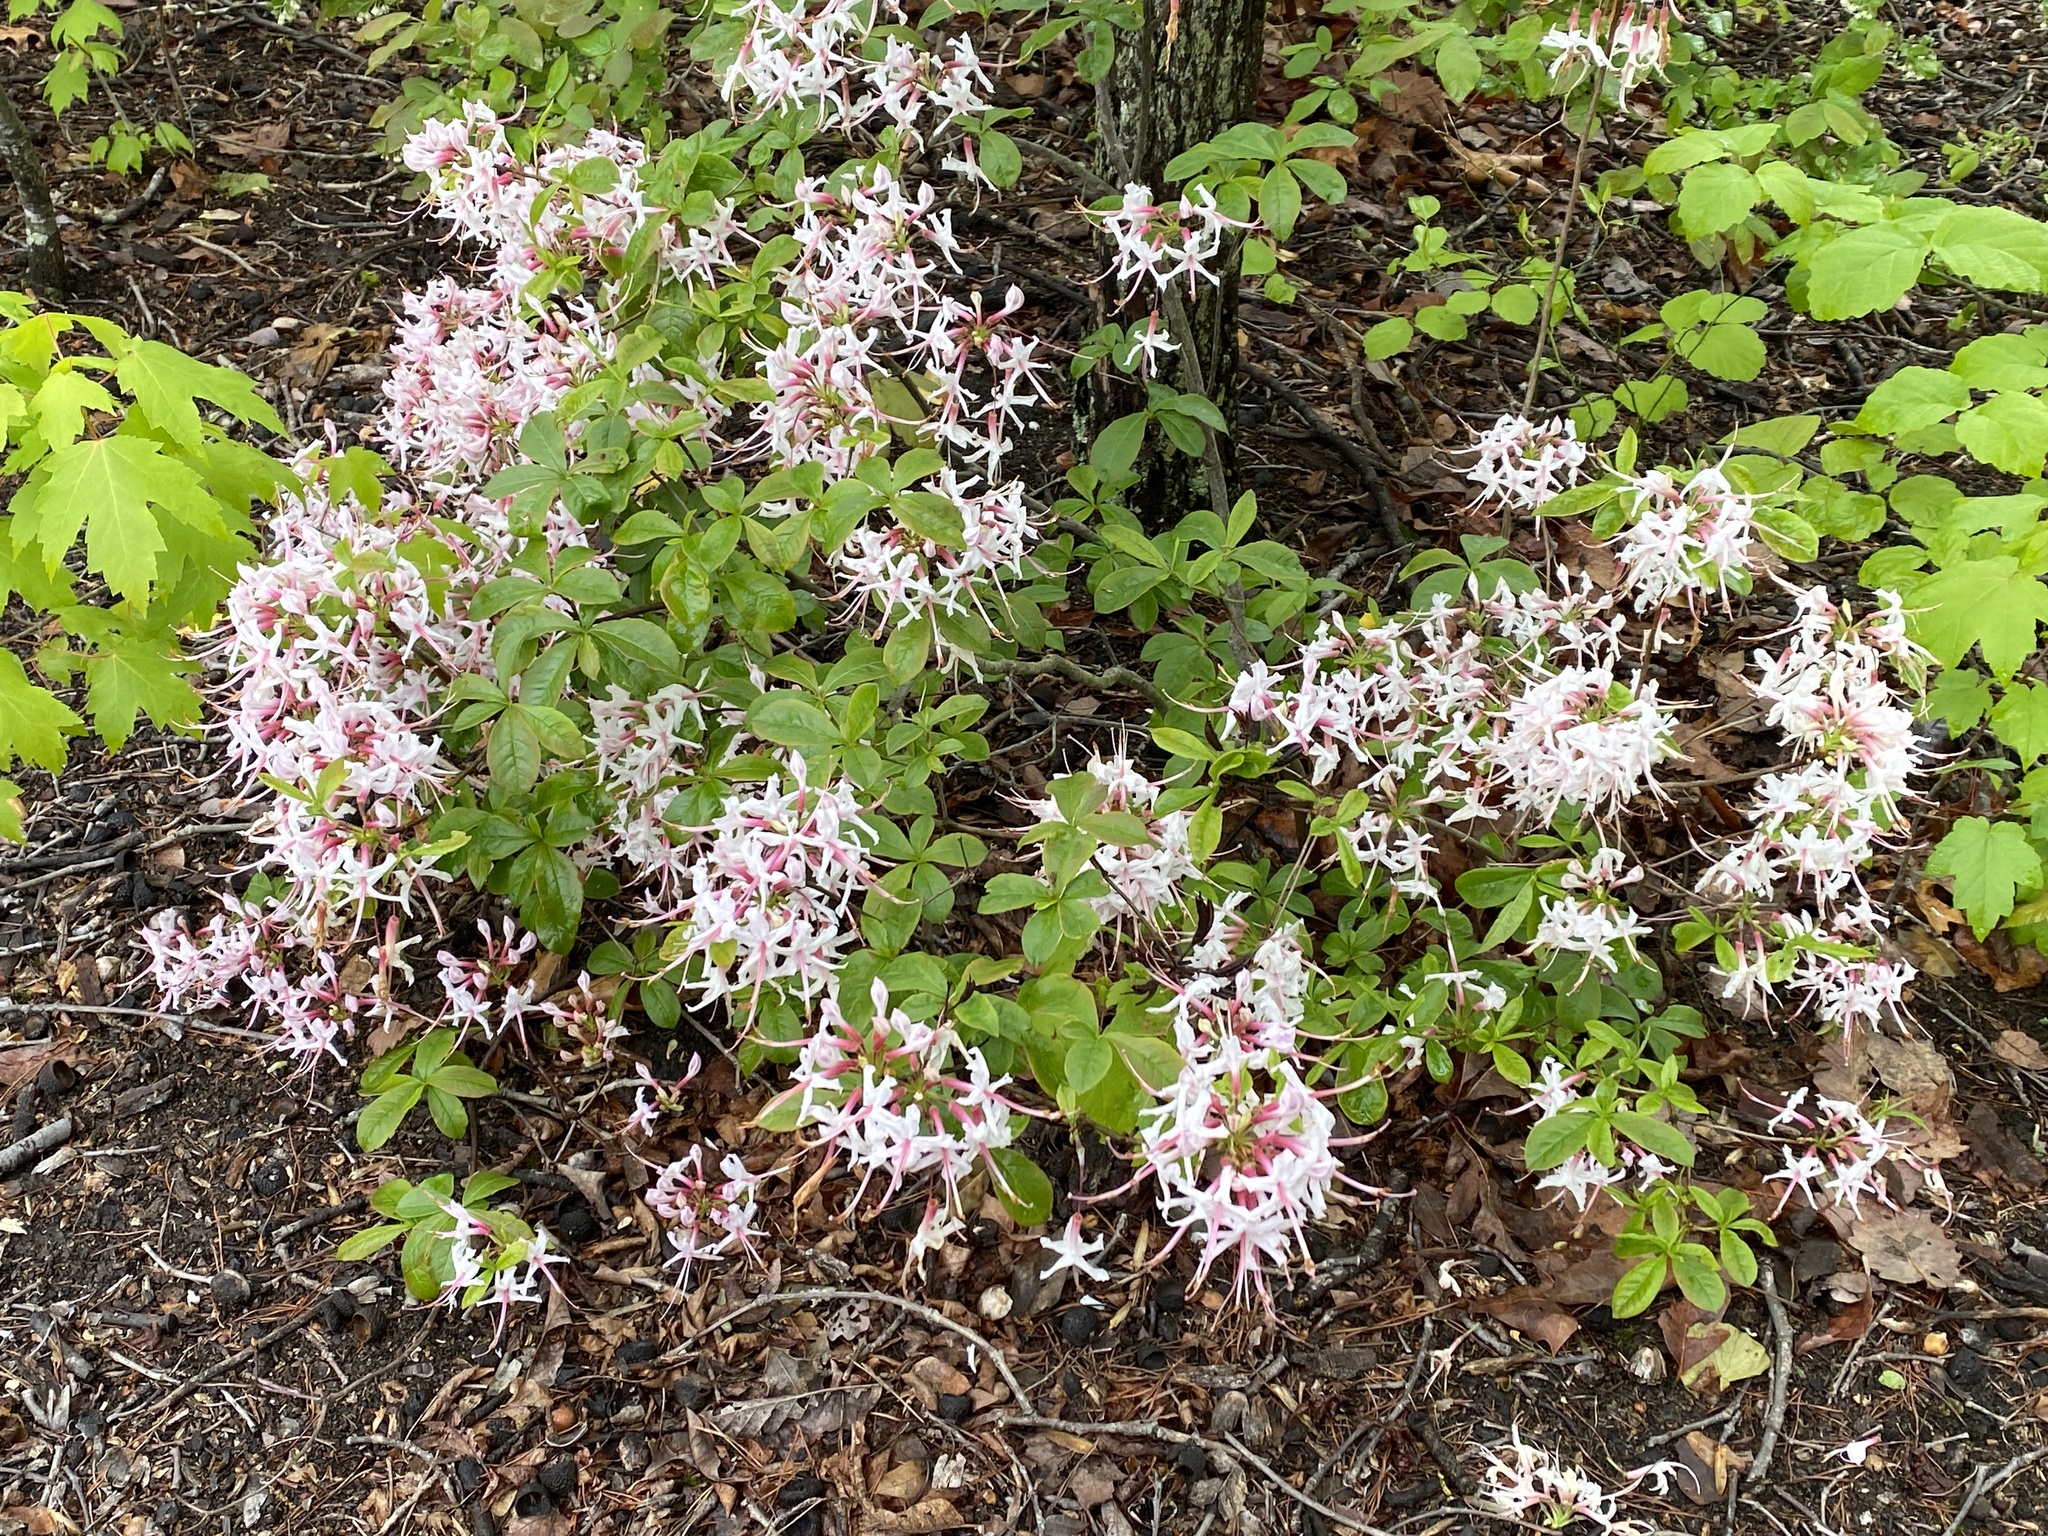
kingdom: Plantae
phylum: Tracheophyta
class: Magnoliopsida
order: Ericales
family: Ericaceae
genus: Rhododendron
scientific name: Rhododendron periclymenoides
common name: Election-pink
